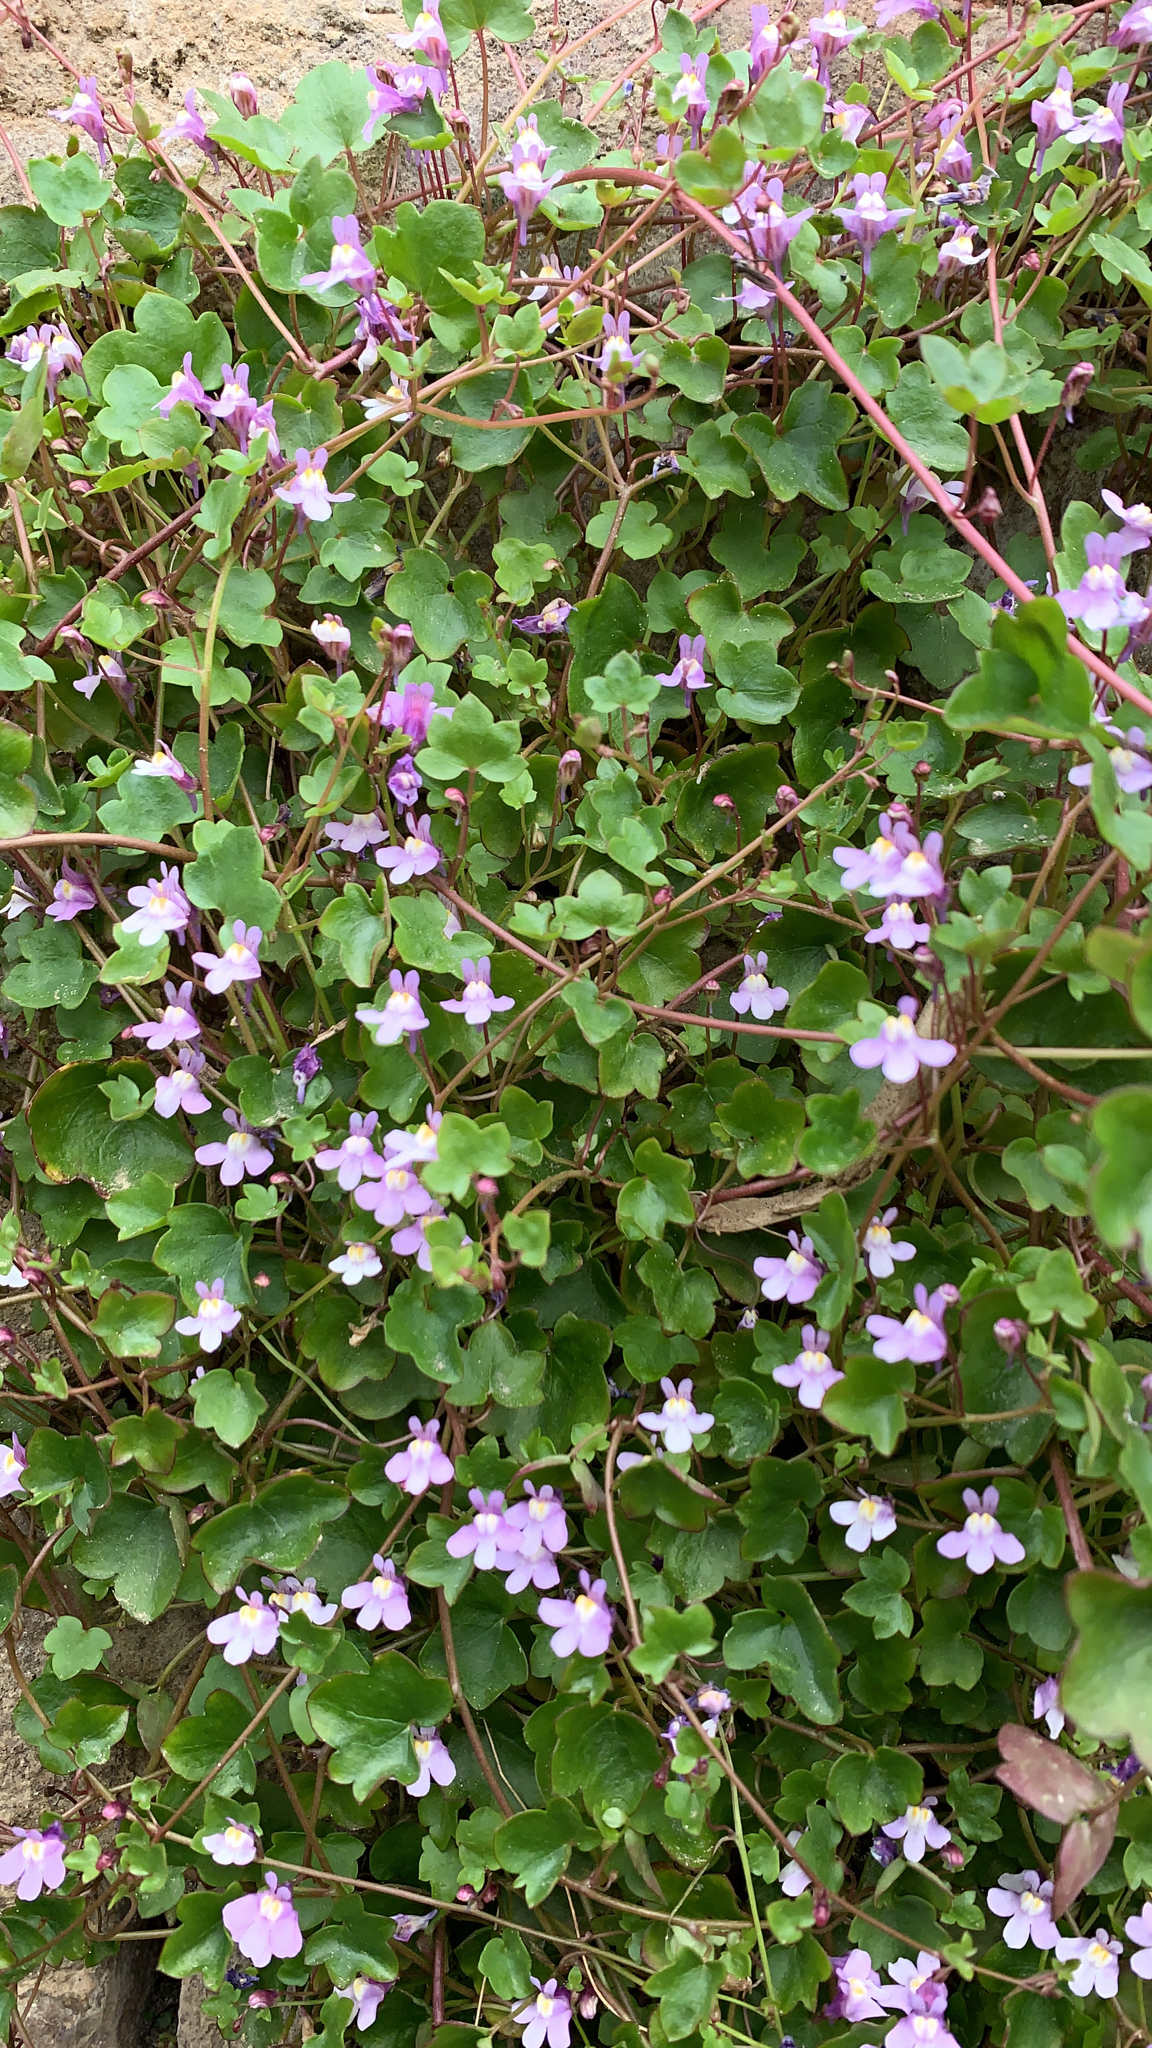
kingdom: Plantae
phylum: Tracheophyta
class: Magnoliopsida
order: Lamiales
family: Plantaginaceae
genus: Cymbalaria
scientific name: Cymbalaria muralis
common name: Ivy-leaved toadflax
